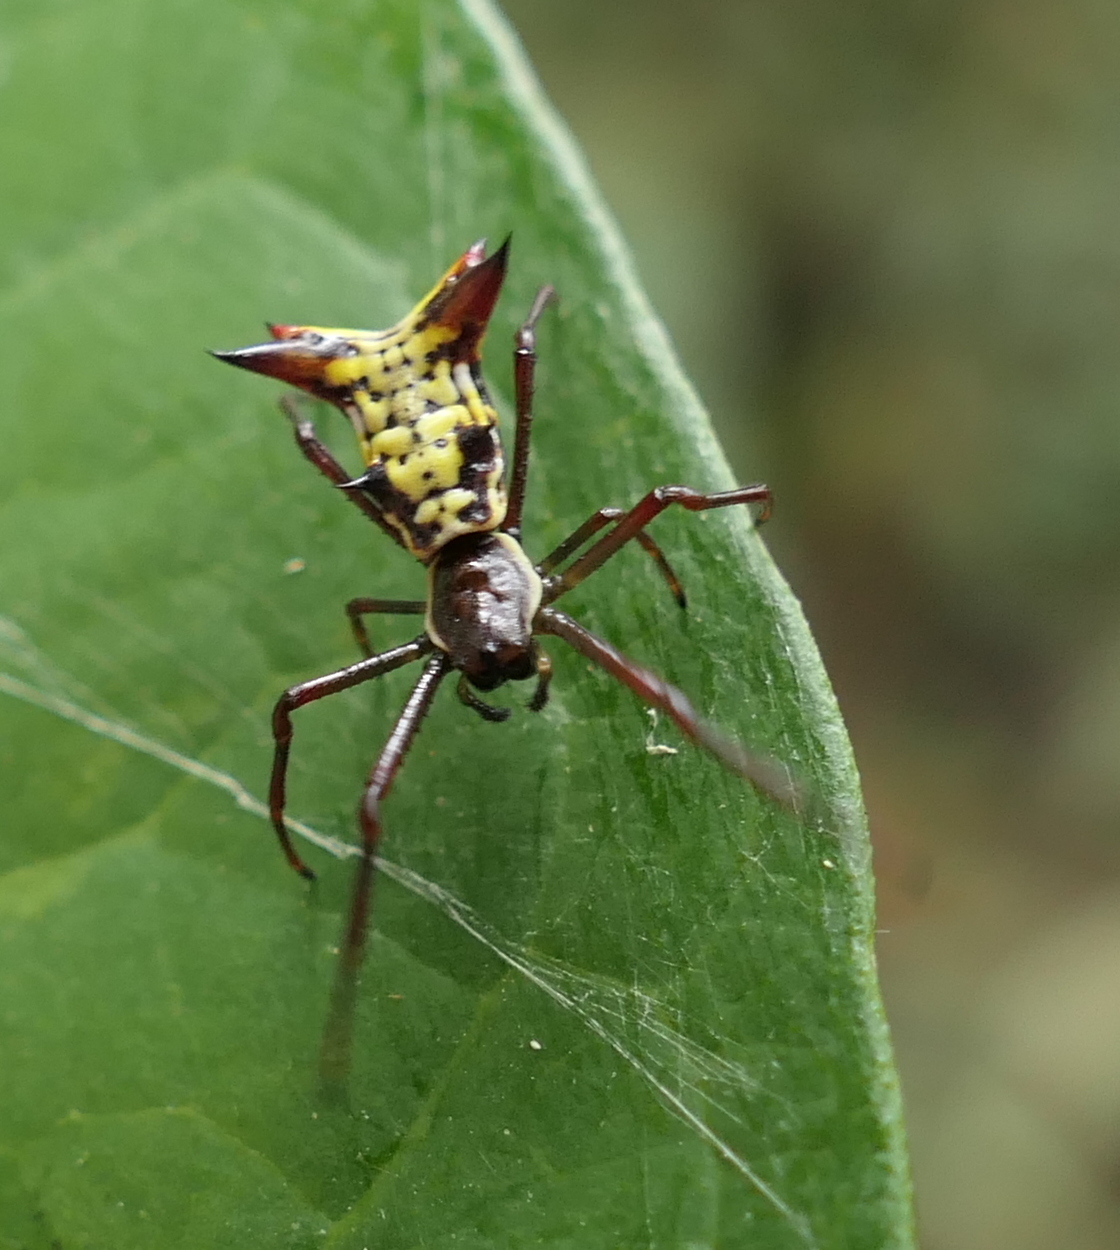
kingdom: Animalia
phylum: Arthropoda
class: Arachnida
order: Araneae
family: Araneidae
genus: Micrathena
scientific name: Micrathena fissispina
